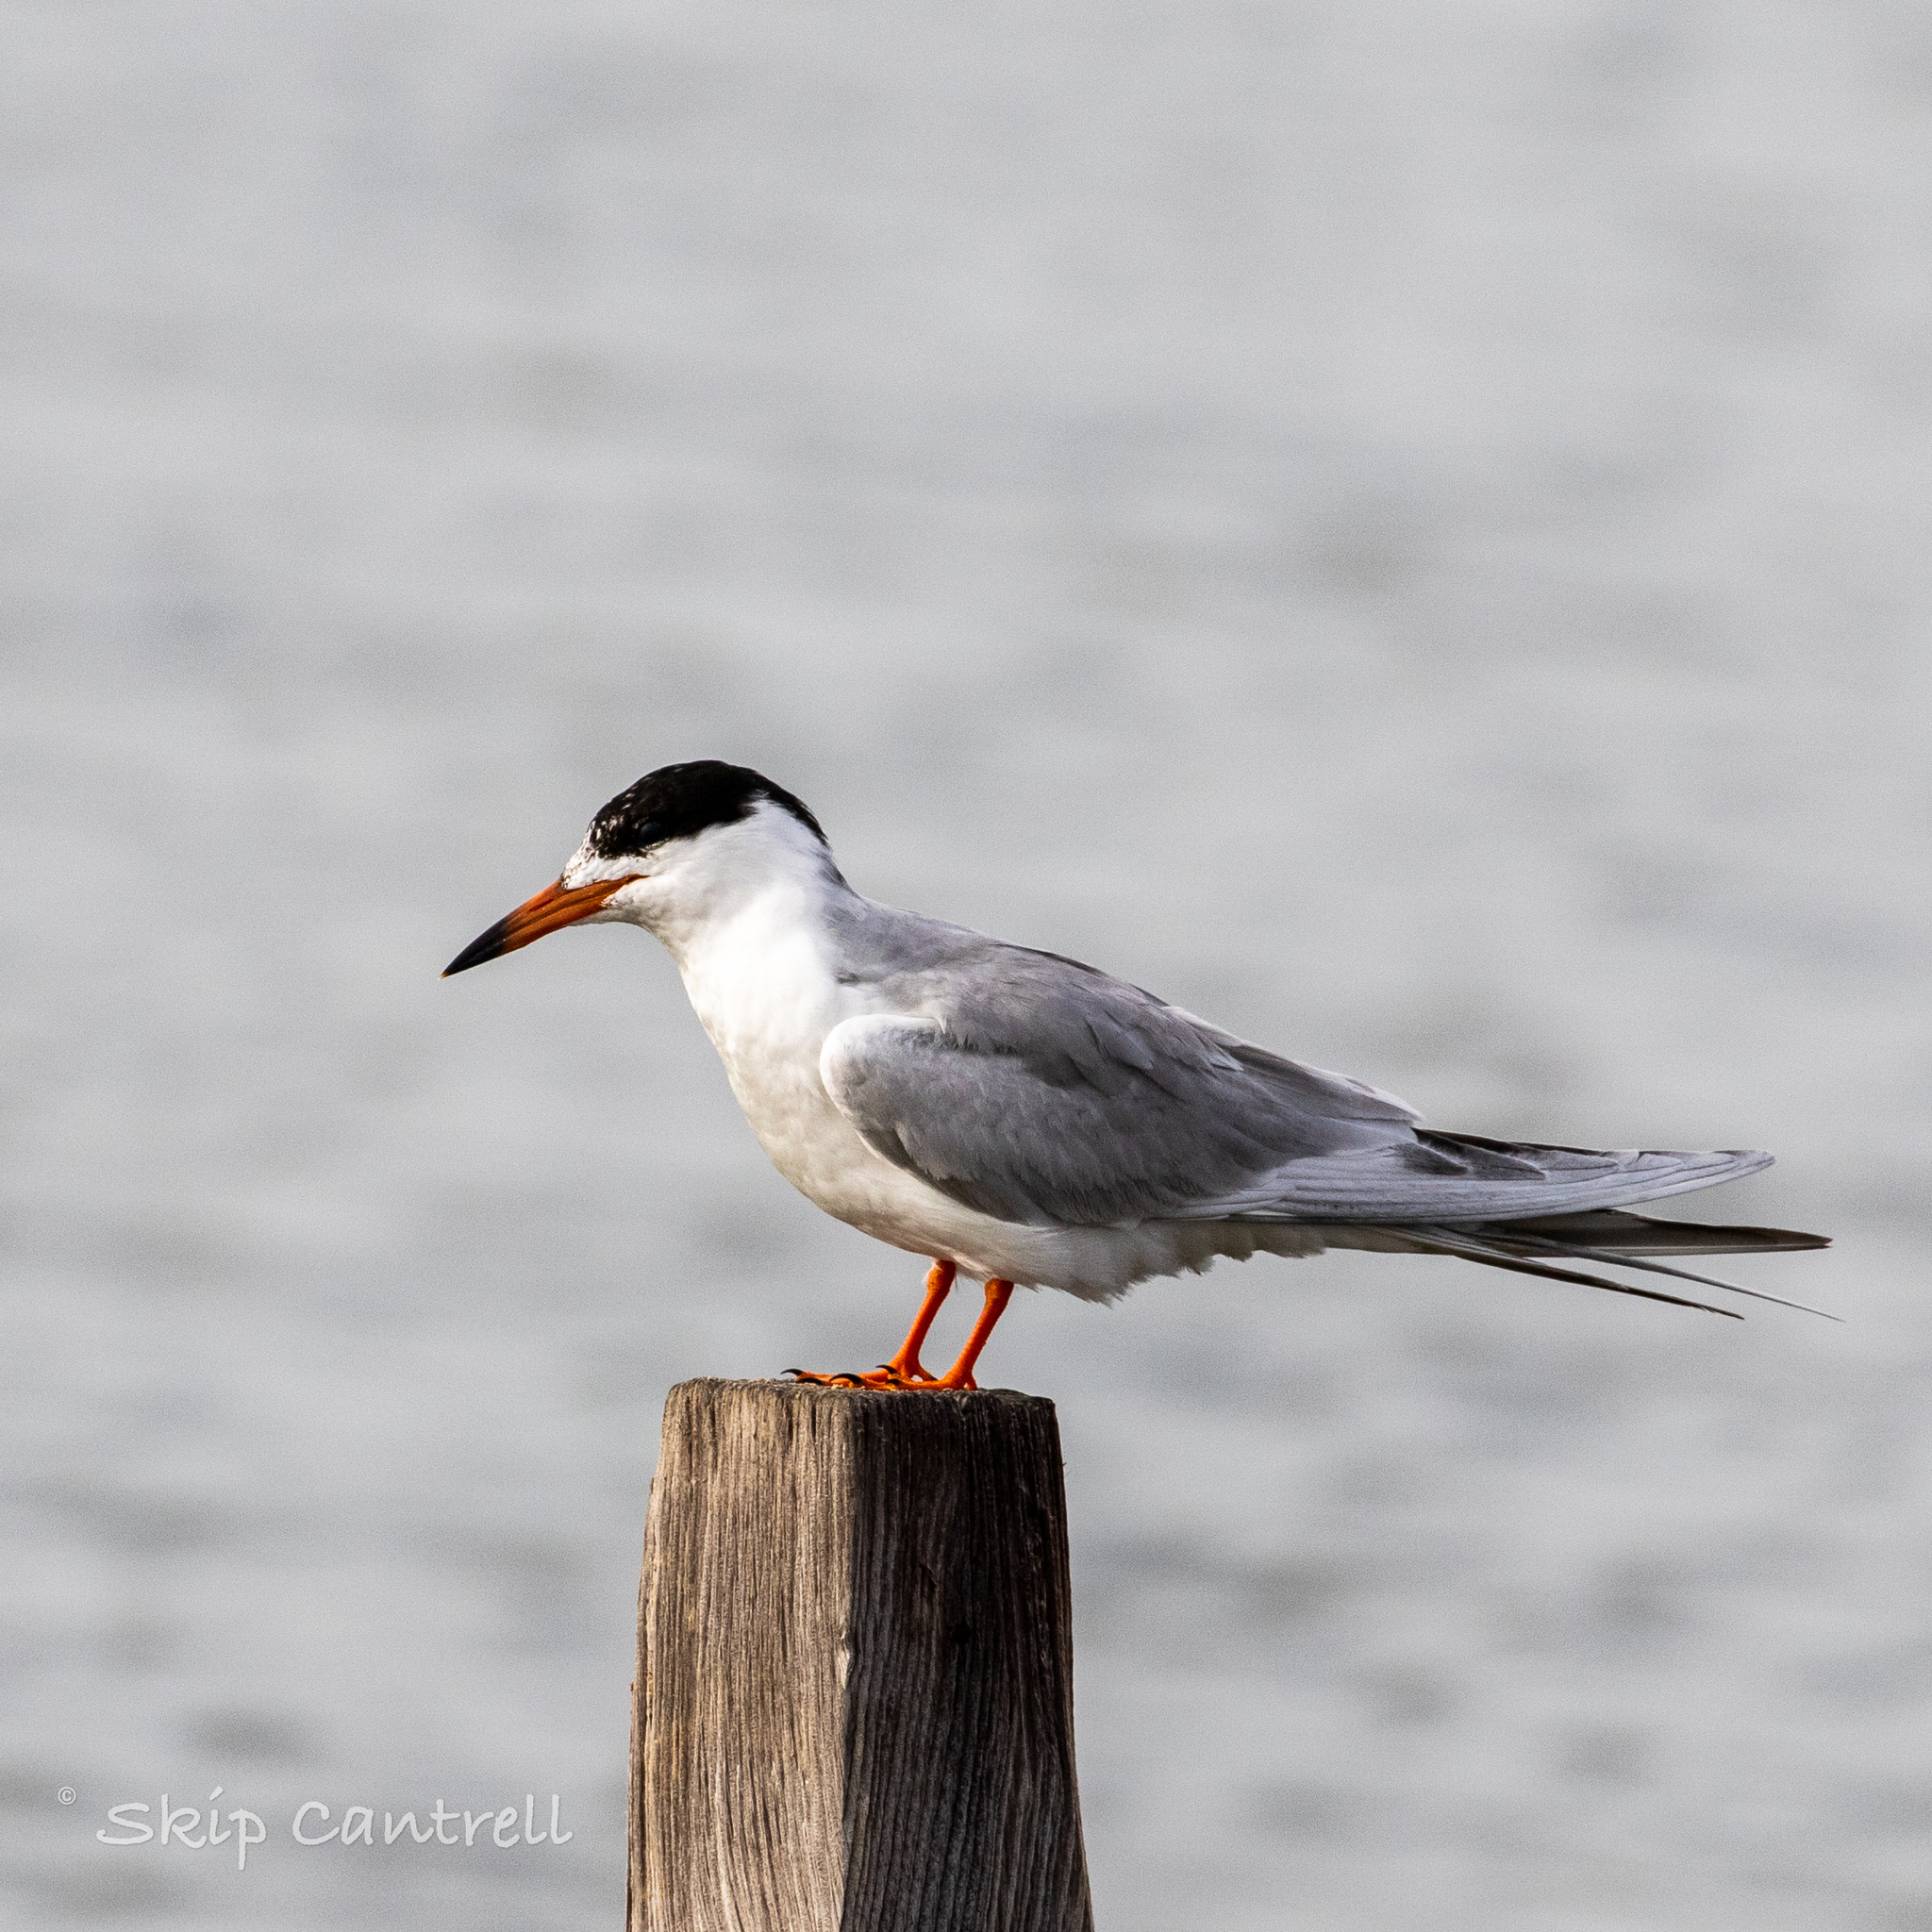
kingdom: Animalia
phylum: Chordata
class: Aves
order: Charadriiformes
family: Laridae
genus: Sterna
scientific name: Sterna forsteri
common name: Forster's tern
